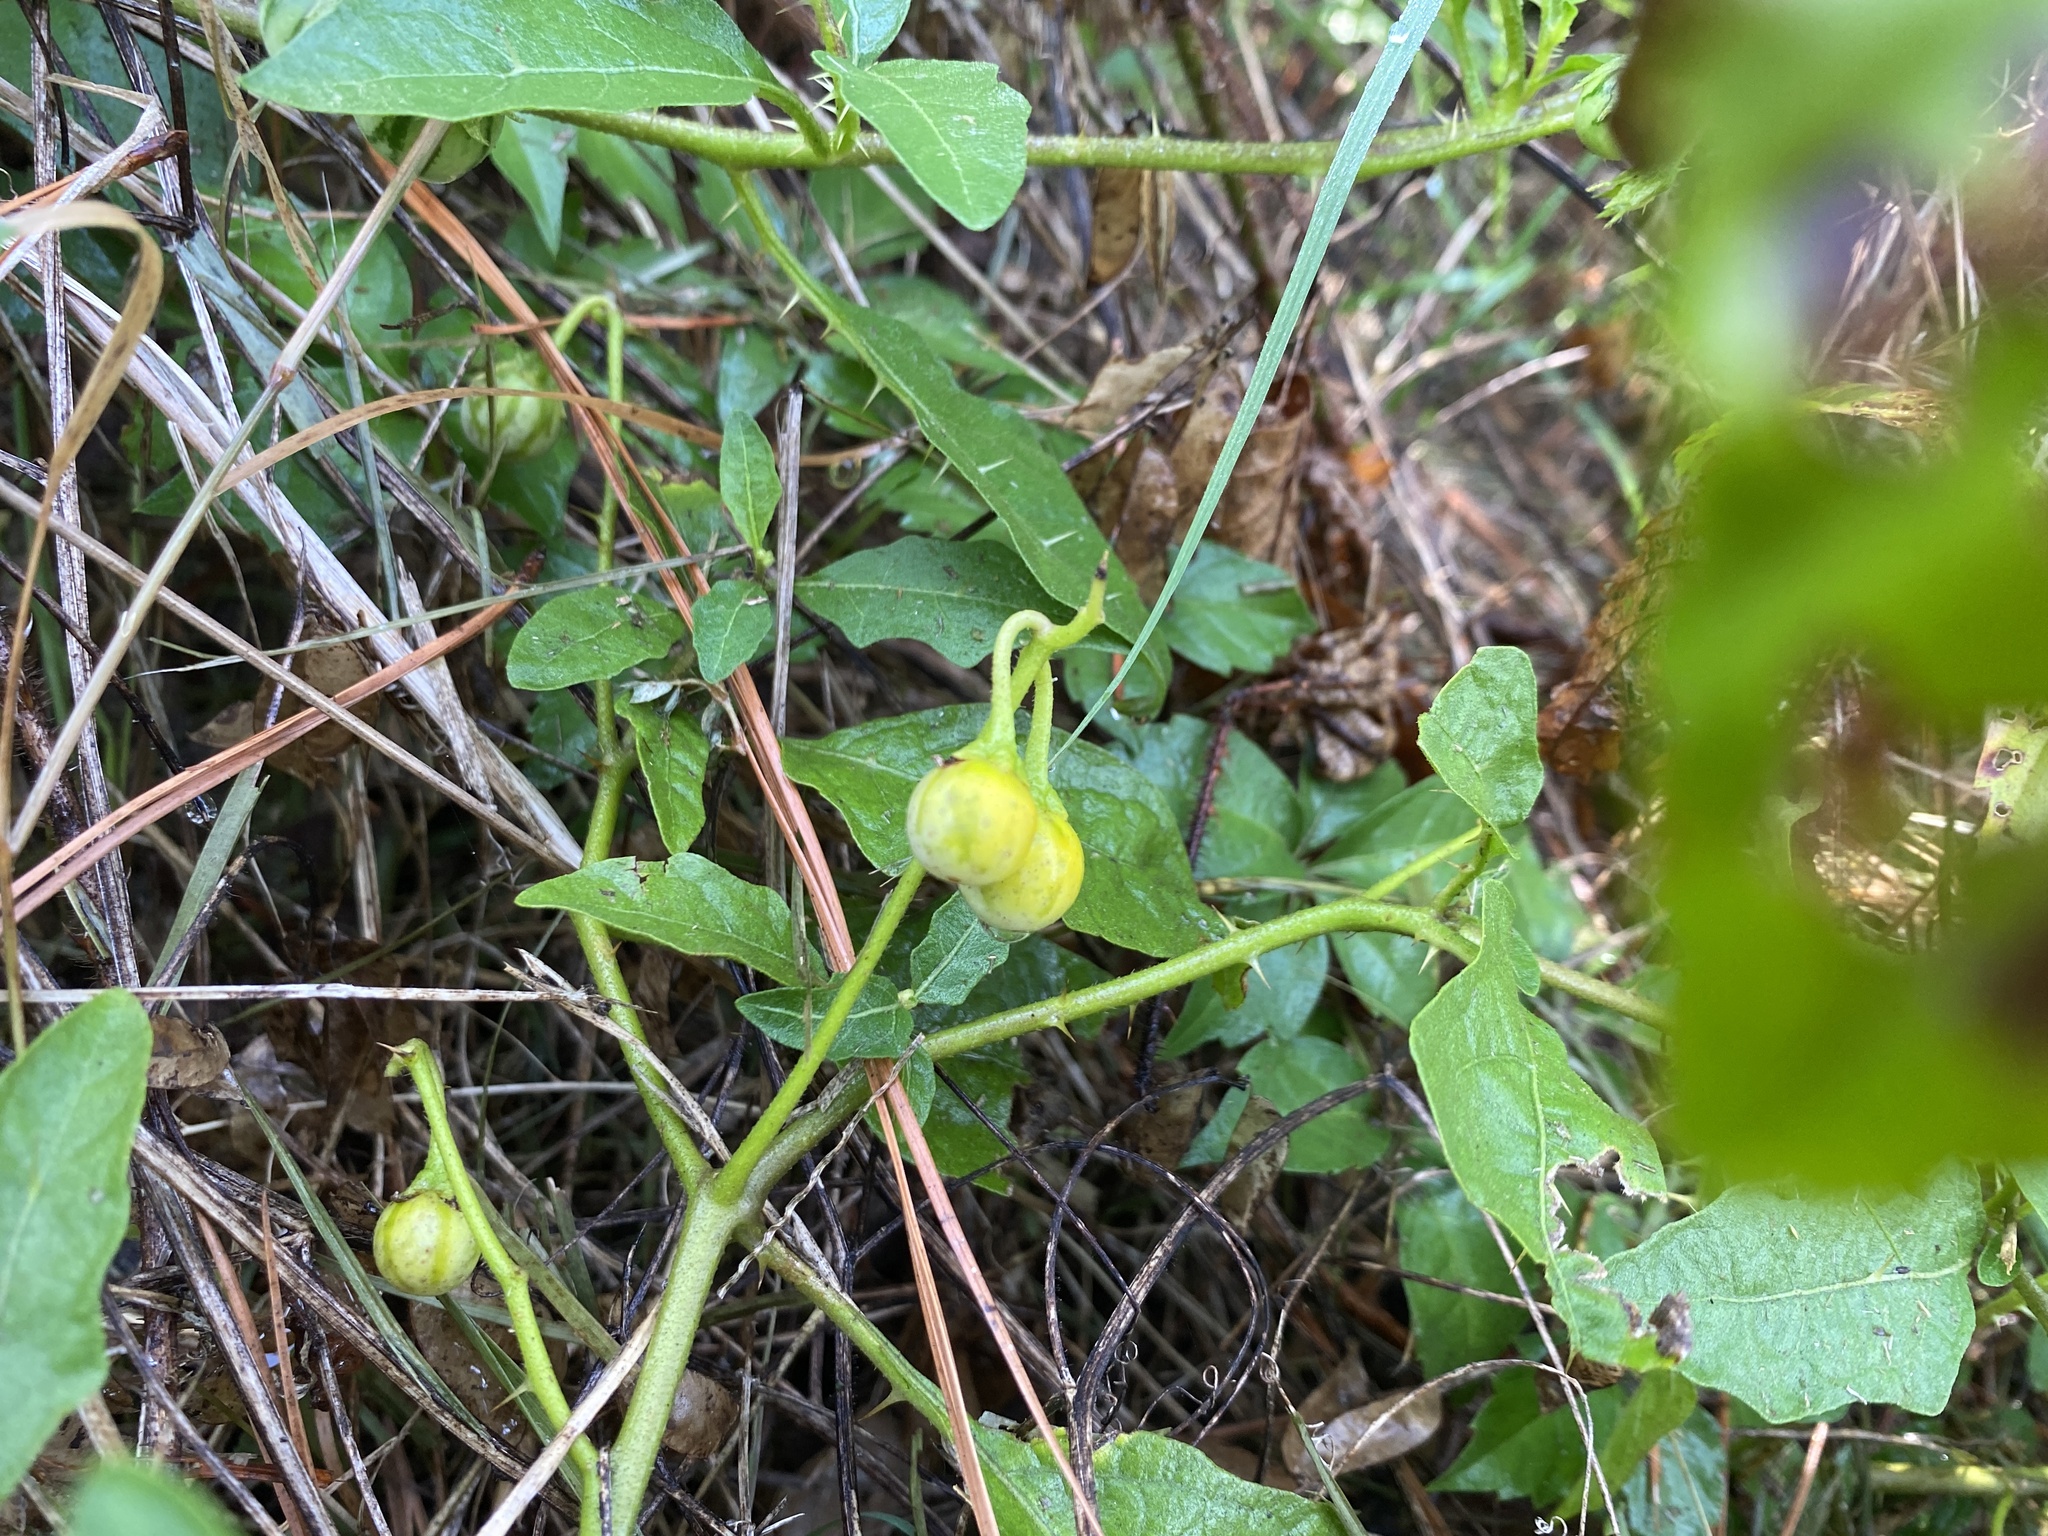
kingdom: Plantae
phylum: Tracheophyta
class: Magnoliopsida
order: Solanales
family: Solanaceae
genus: Solanum
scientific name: Solanum carolinense
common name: Horse-nettle
